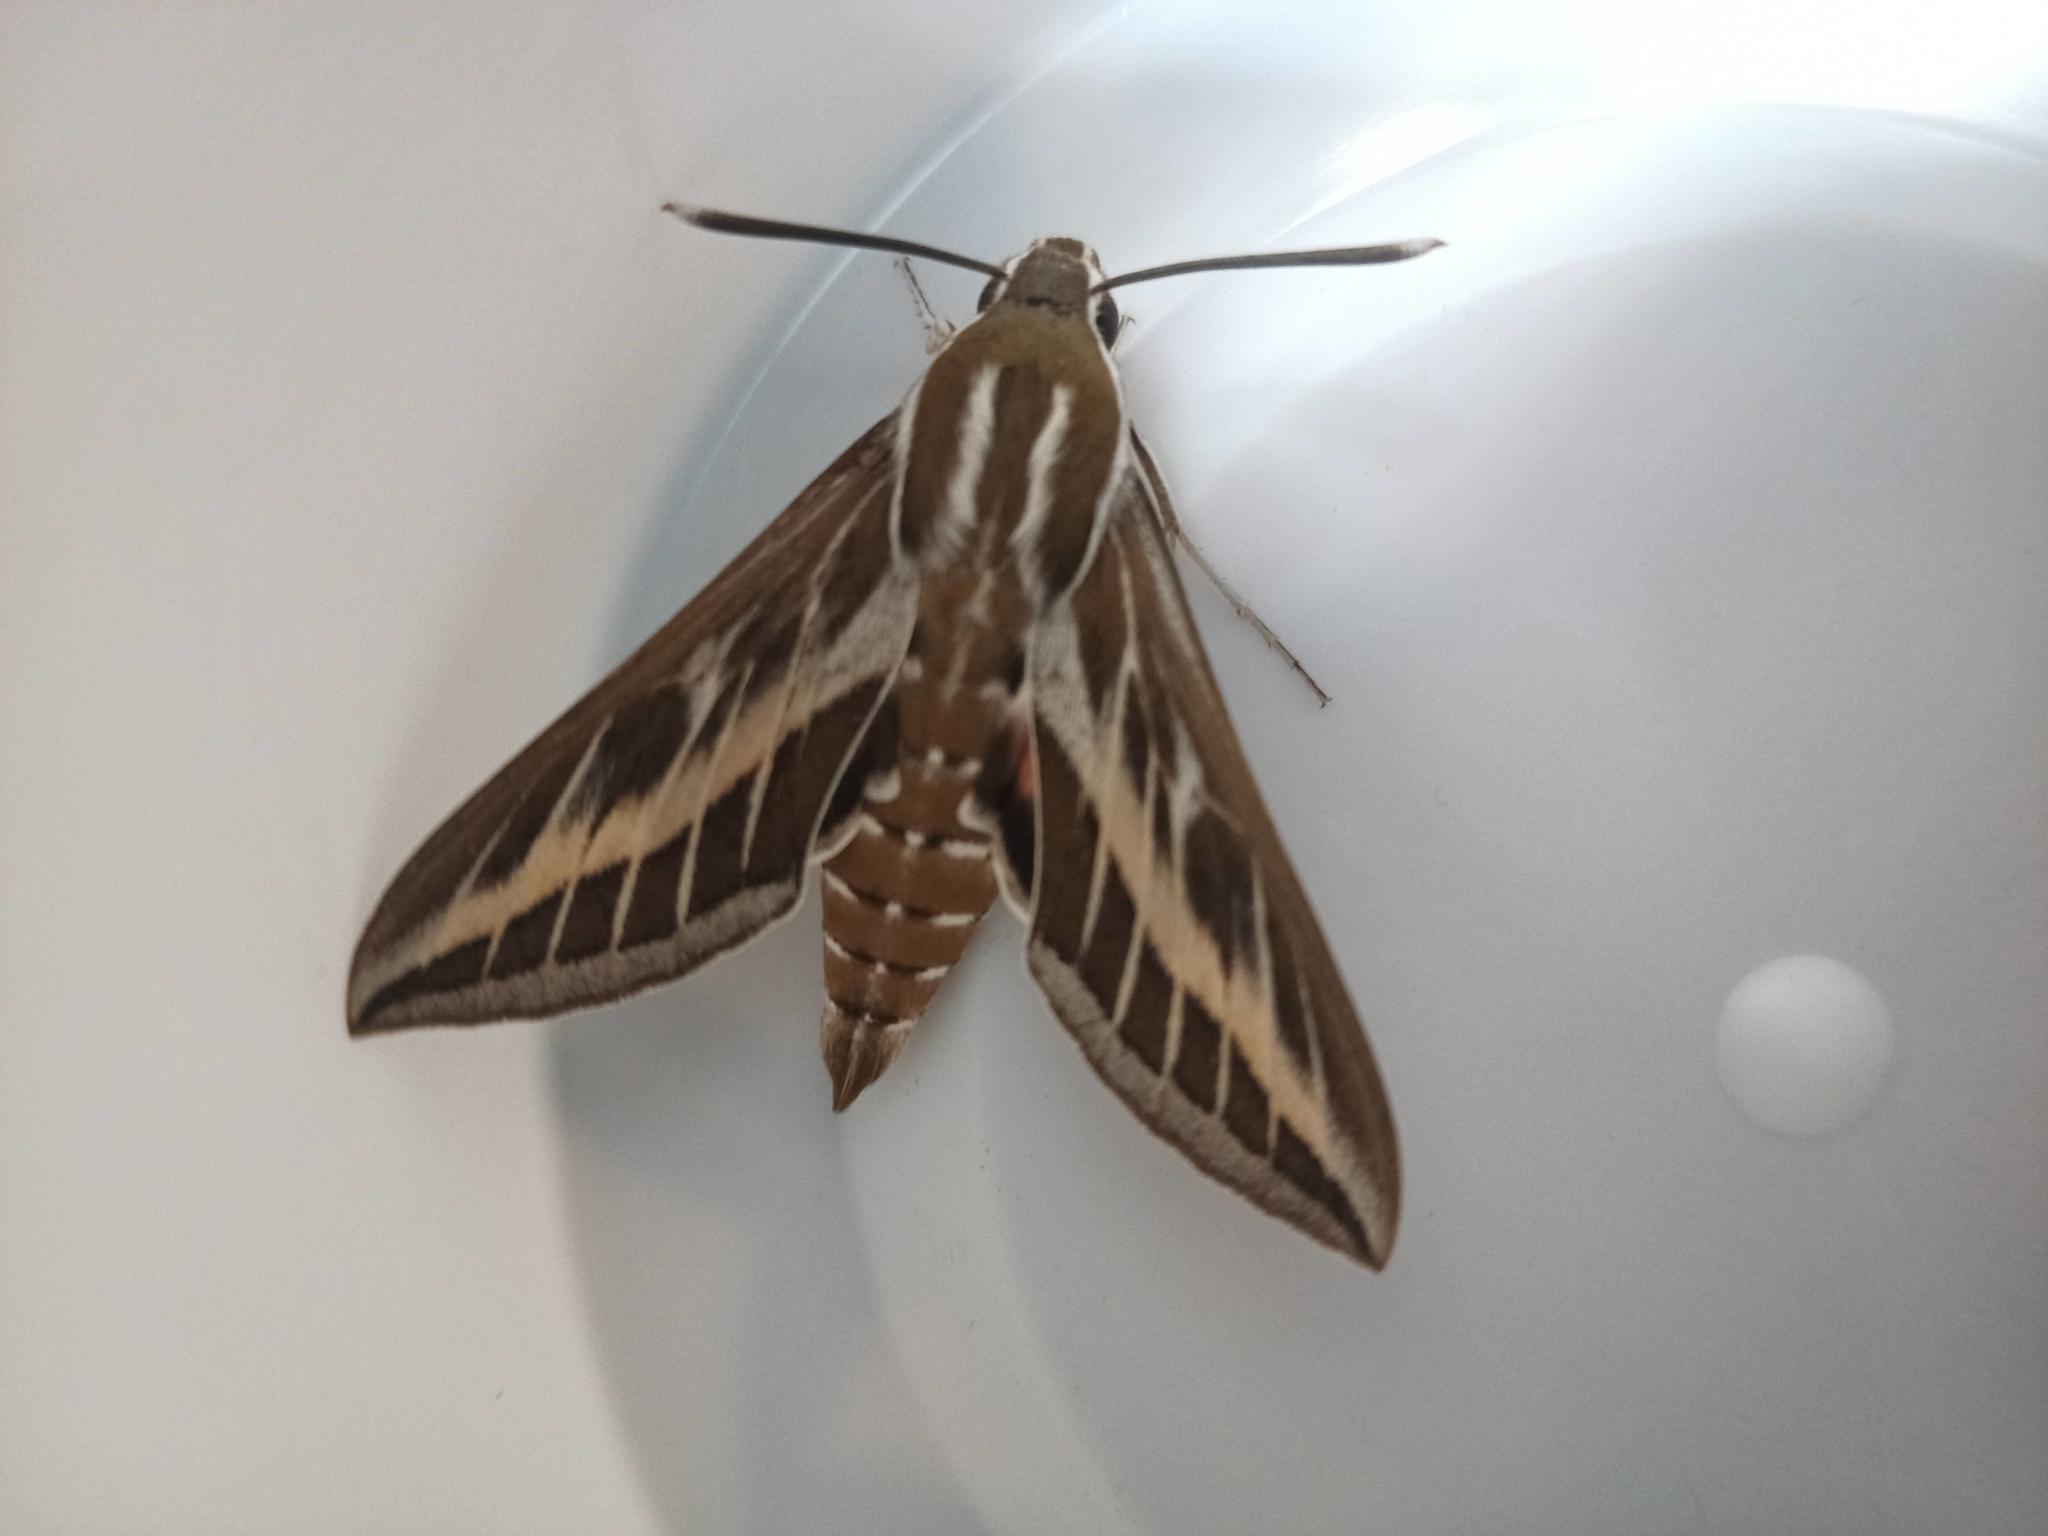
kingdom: Animalia
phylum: Arthropoda
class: Insecta
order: Lepidoptera
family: Sphingidae
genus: Hyles
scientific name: Hyles livornica
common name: Striped hawk-moth
